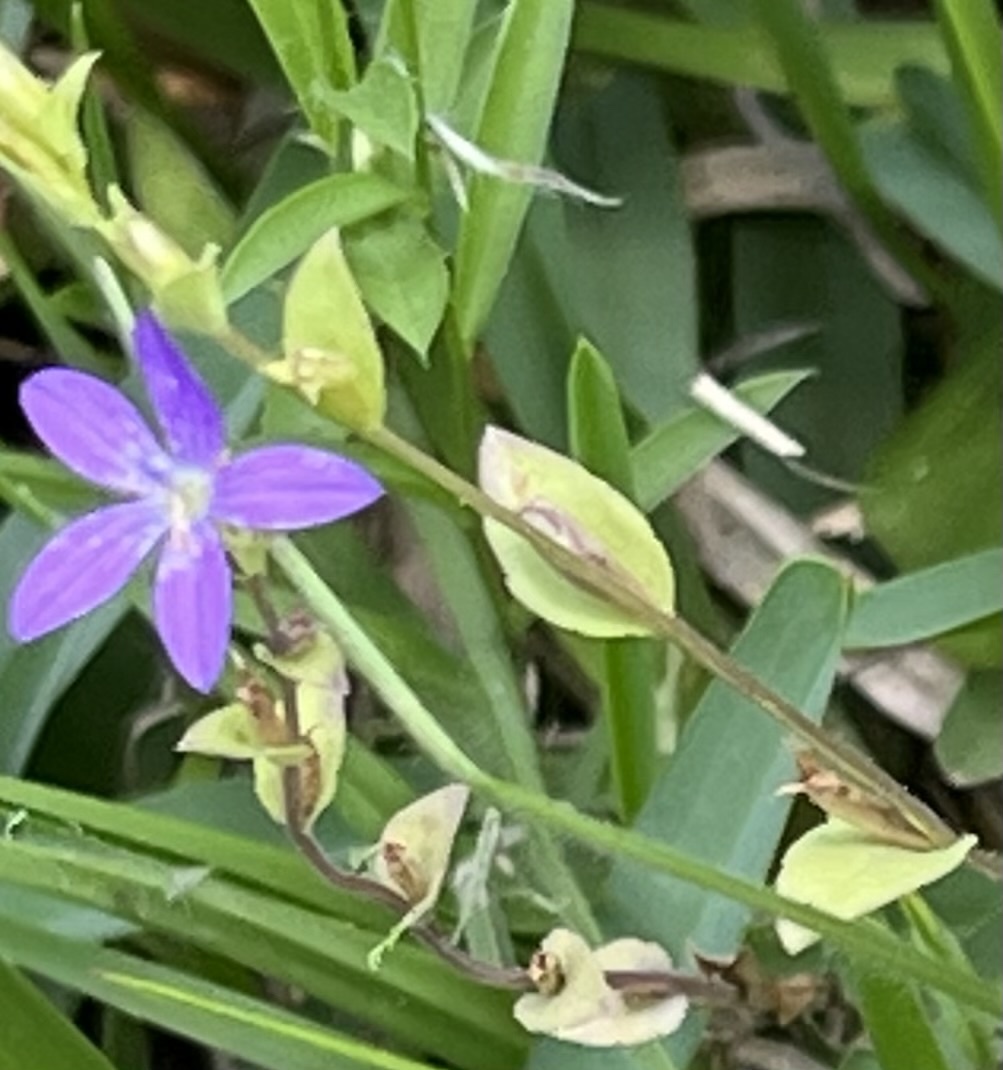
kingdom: Plantae
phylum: Tracheophyta
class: Magnoliopsida
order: Asterales
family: Campanulaceae
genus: Triodanis
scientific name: Triodanis biflora
